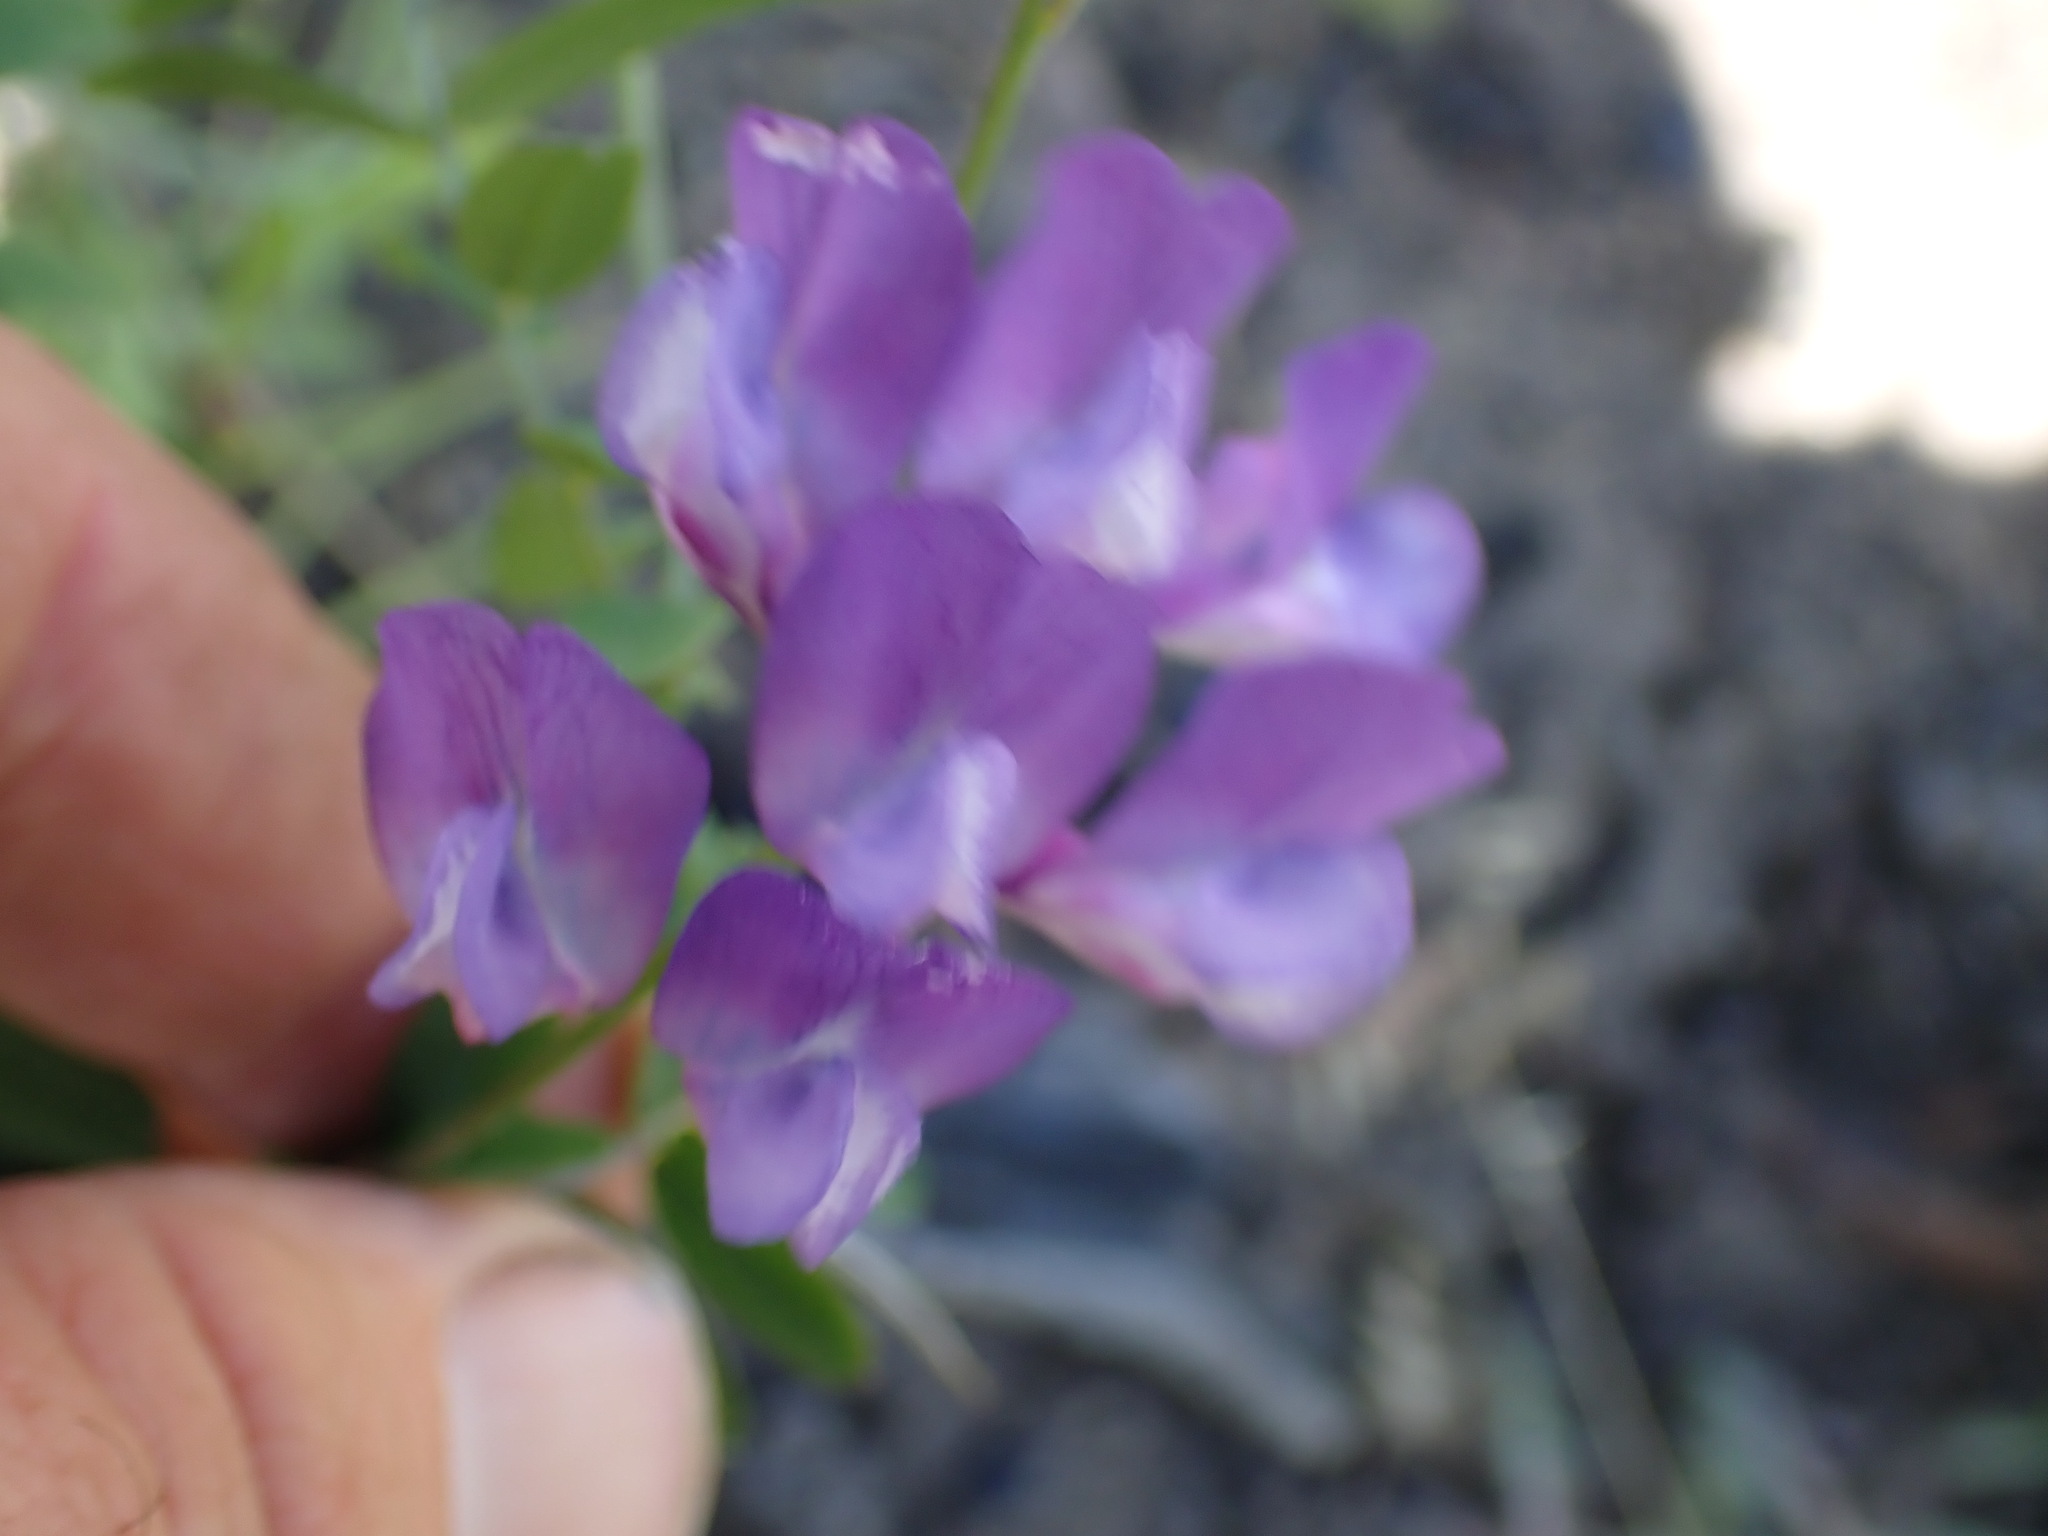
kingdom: Plantae
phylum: Tracheophyta
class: Magnoliopsida
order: Fabales
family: Fabaceae
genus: Vicia
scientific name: Vicia americana
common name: American vetch
